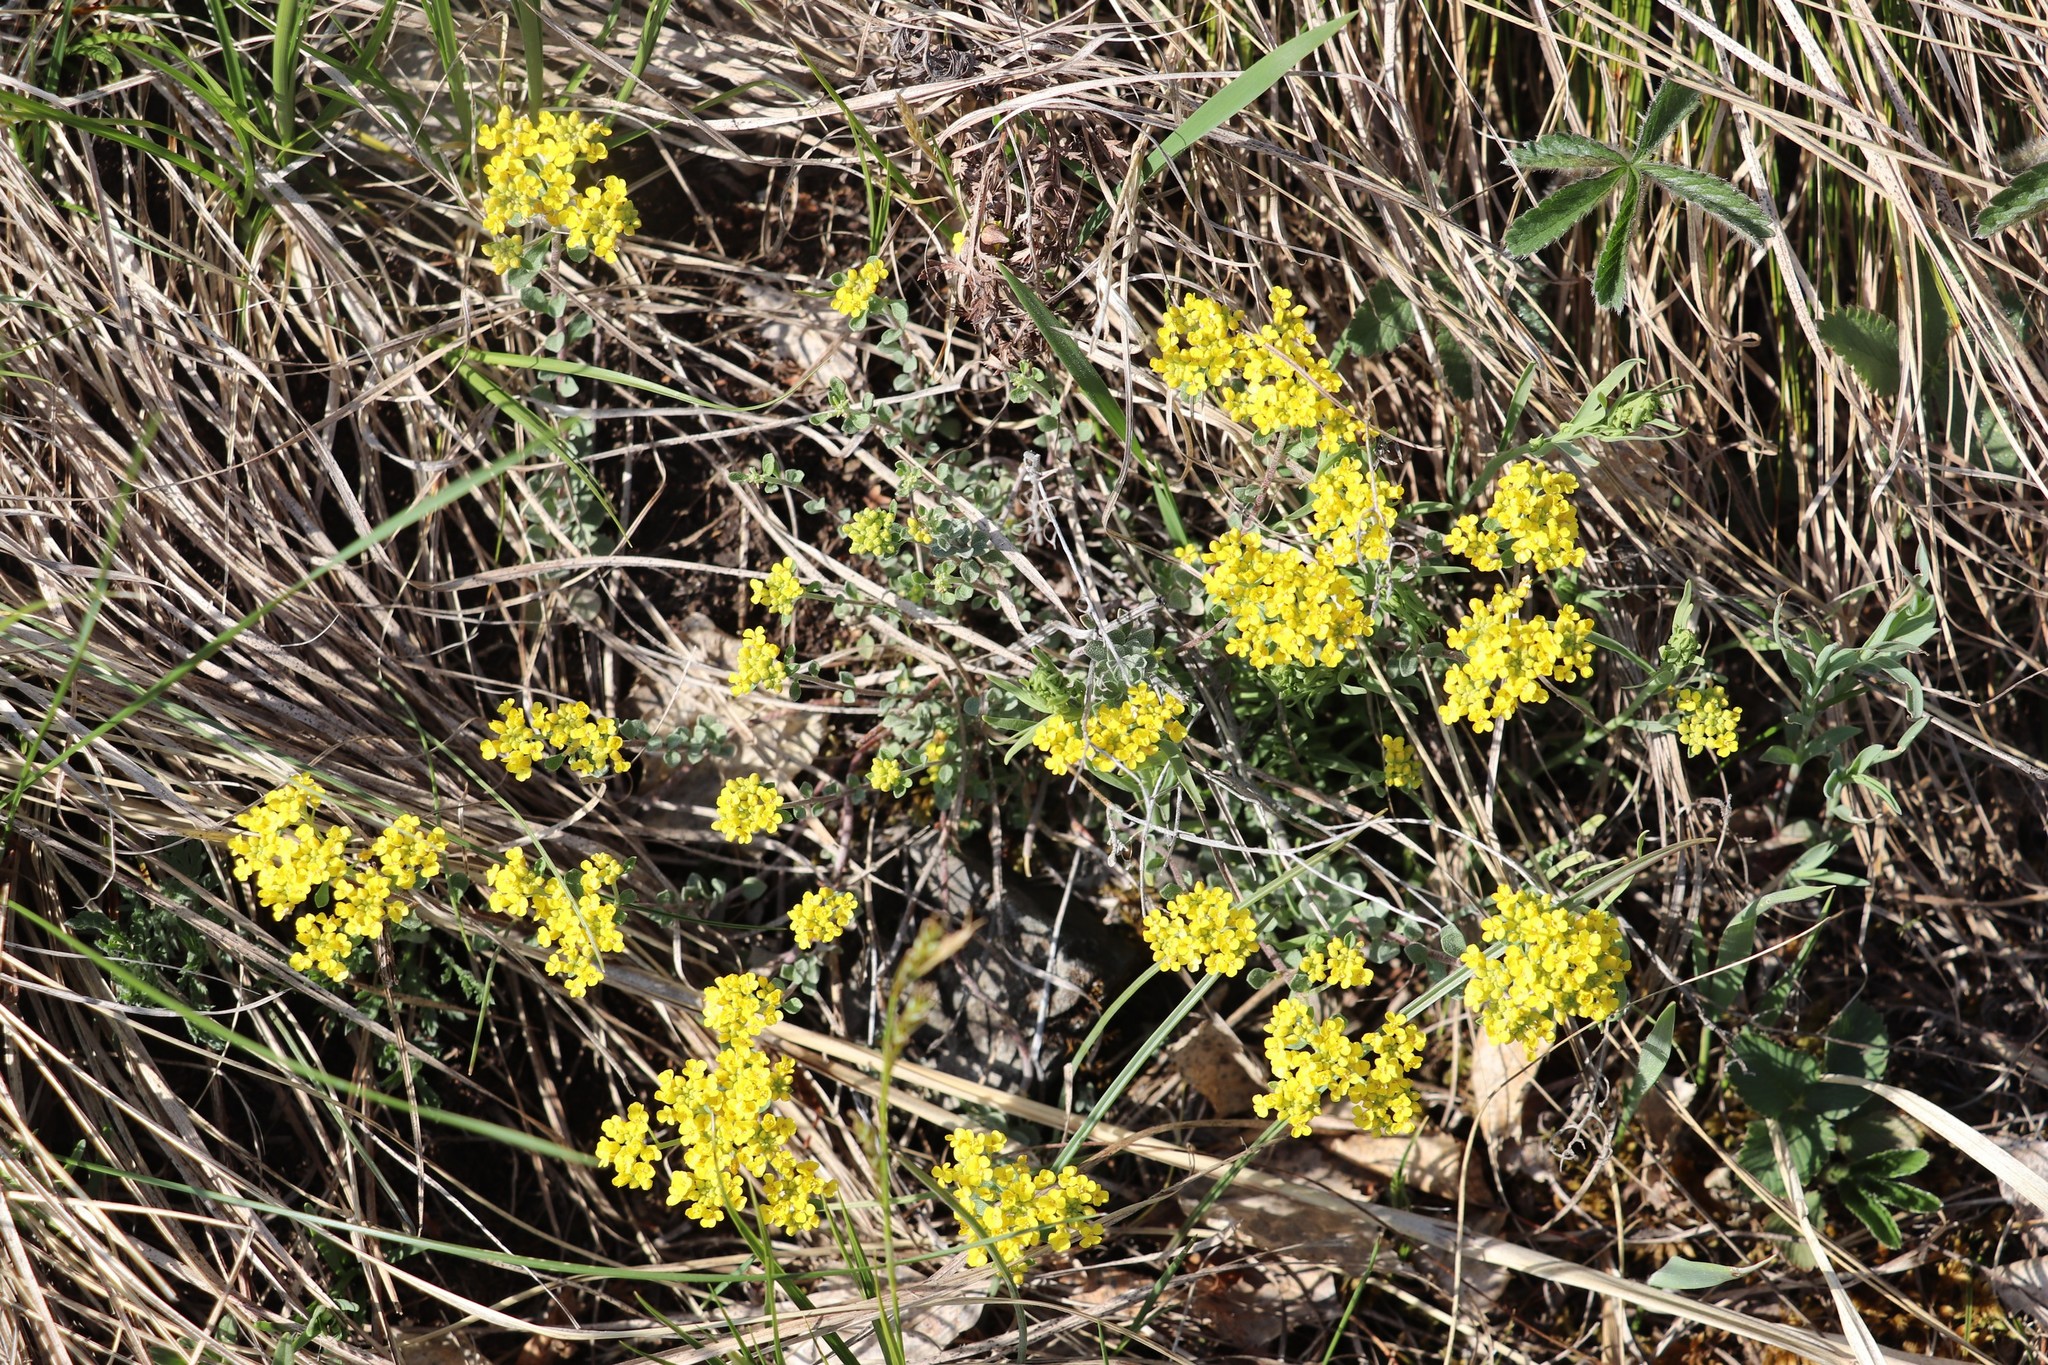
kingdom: Plantae
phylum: Tracheophyta
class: Magnoliopsida
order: Brassicales
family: Brassicaceae
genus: Odontarrhena
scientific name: Odontarrhena obovata
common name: American alyssum
